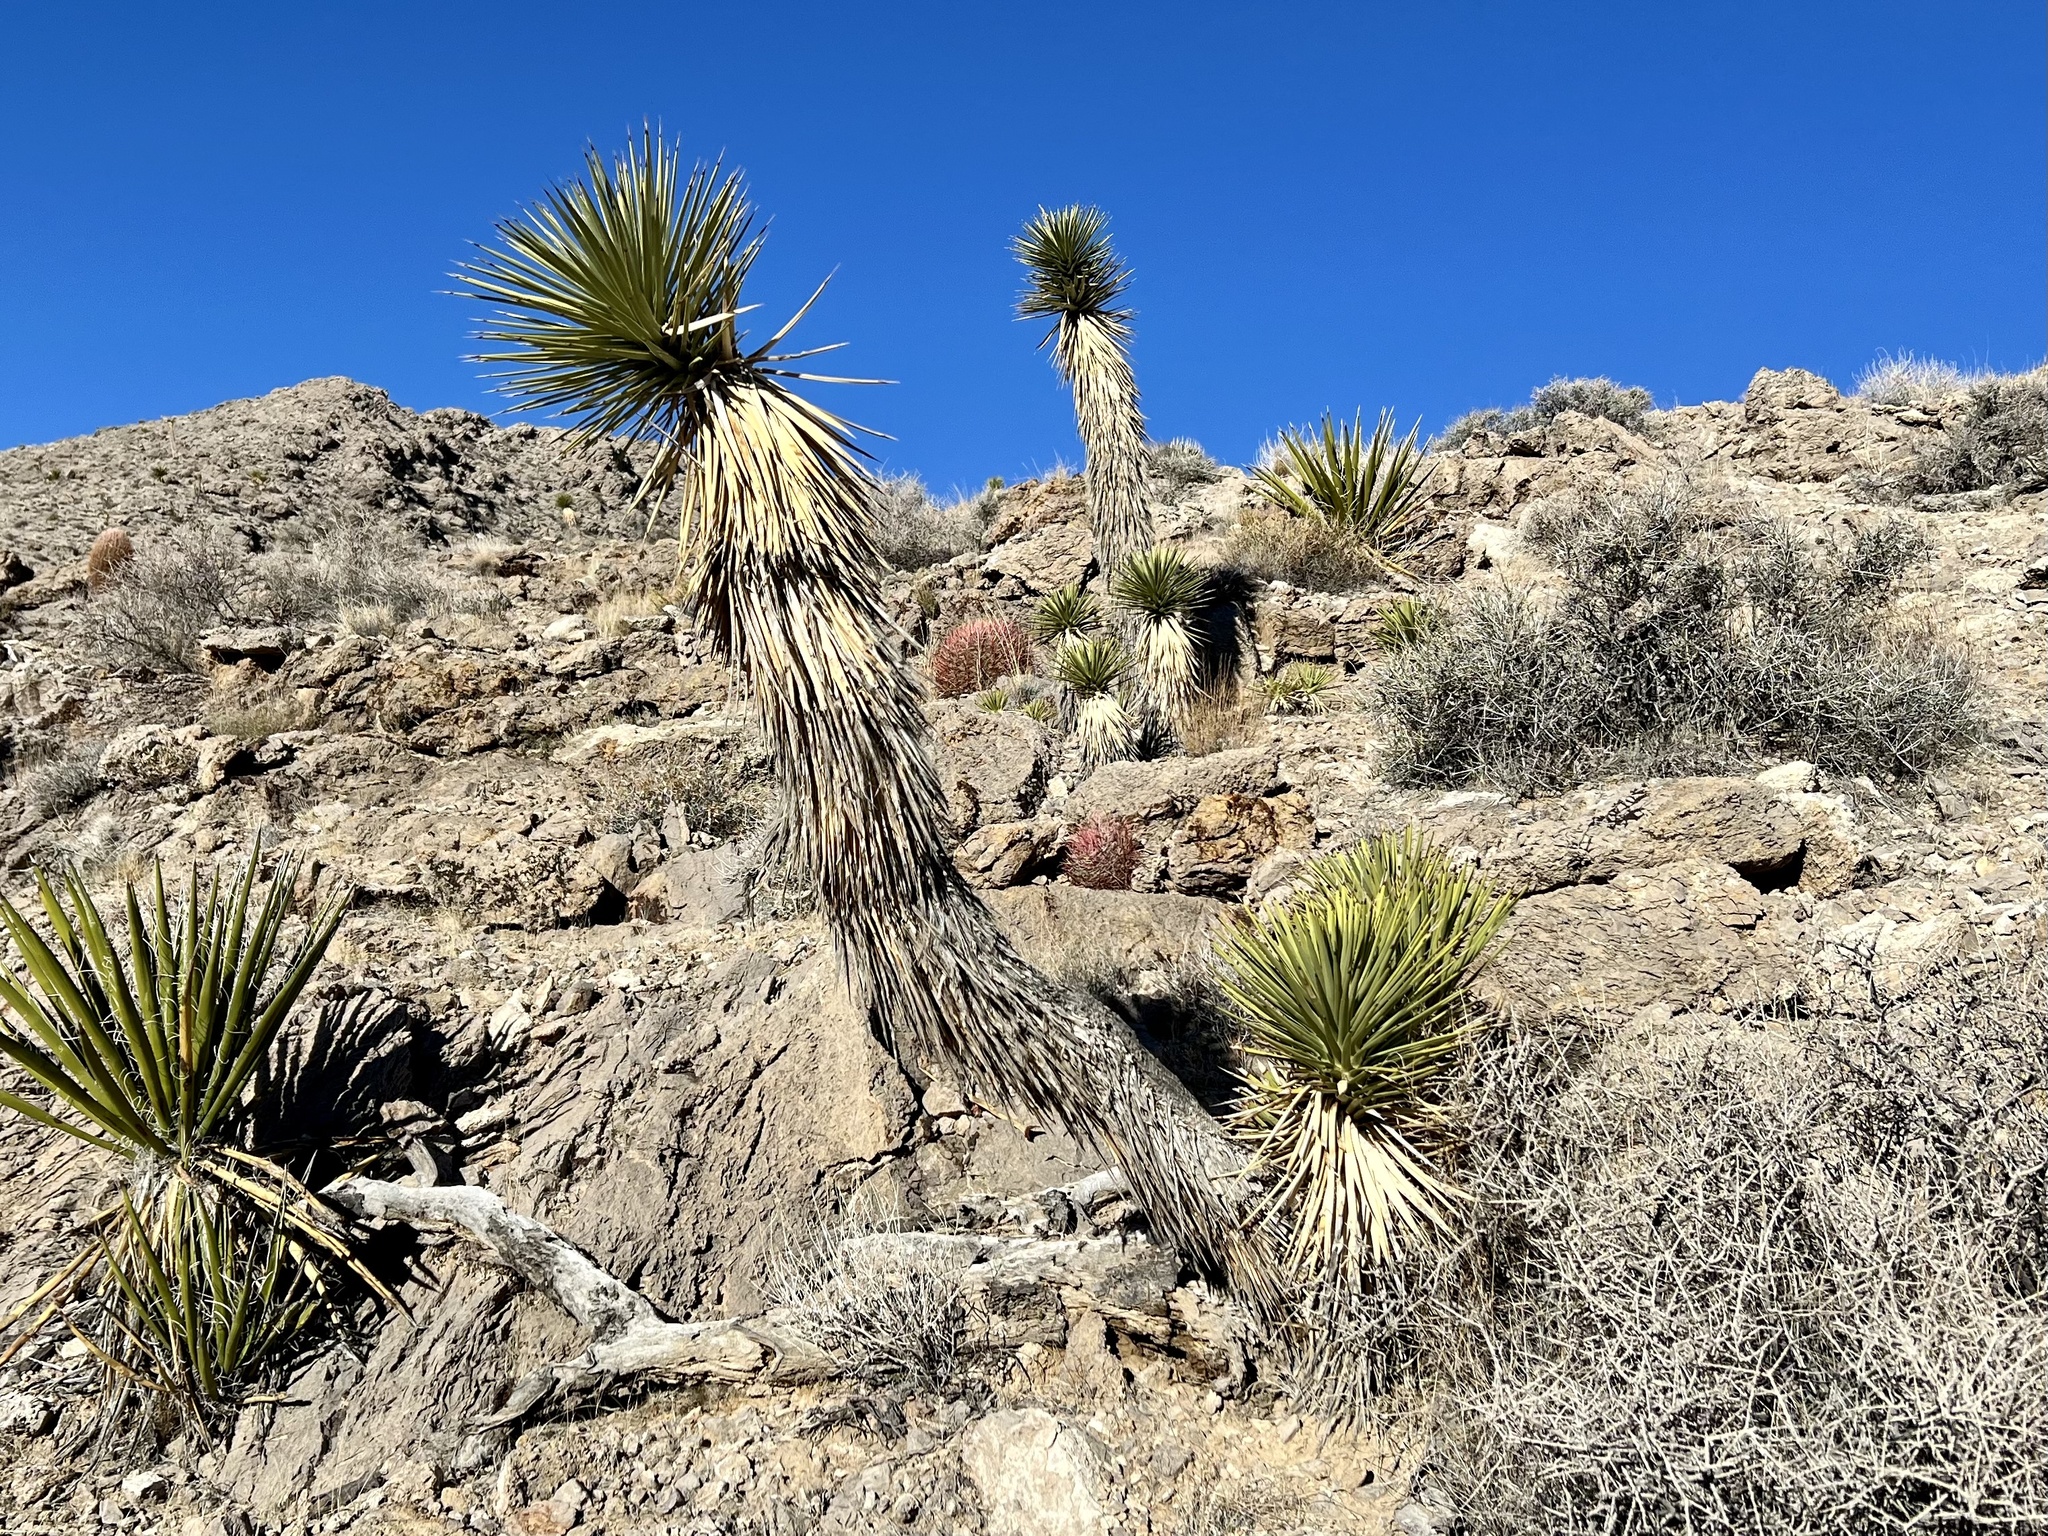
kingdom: Plantae
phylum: Tracheophyta
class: Liliopsida
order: Asparagales
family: Asparagaceae
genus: Yucca
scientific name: Yucca brevifolia
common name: Joshua tree
